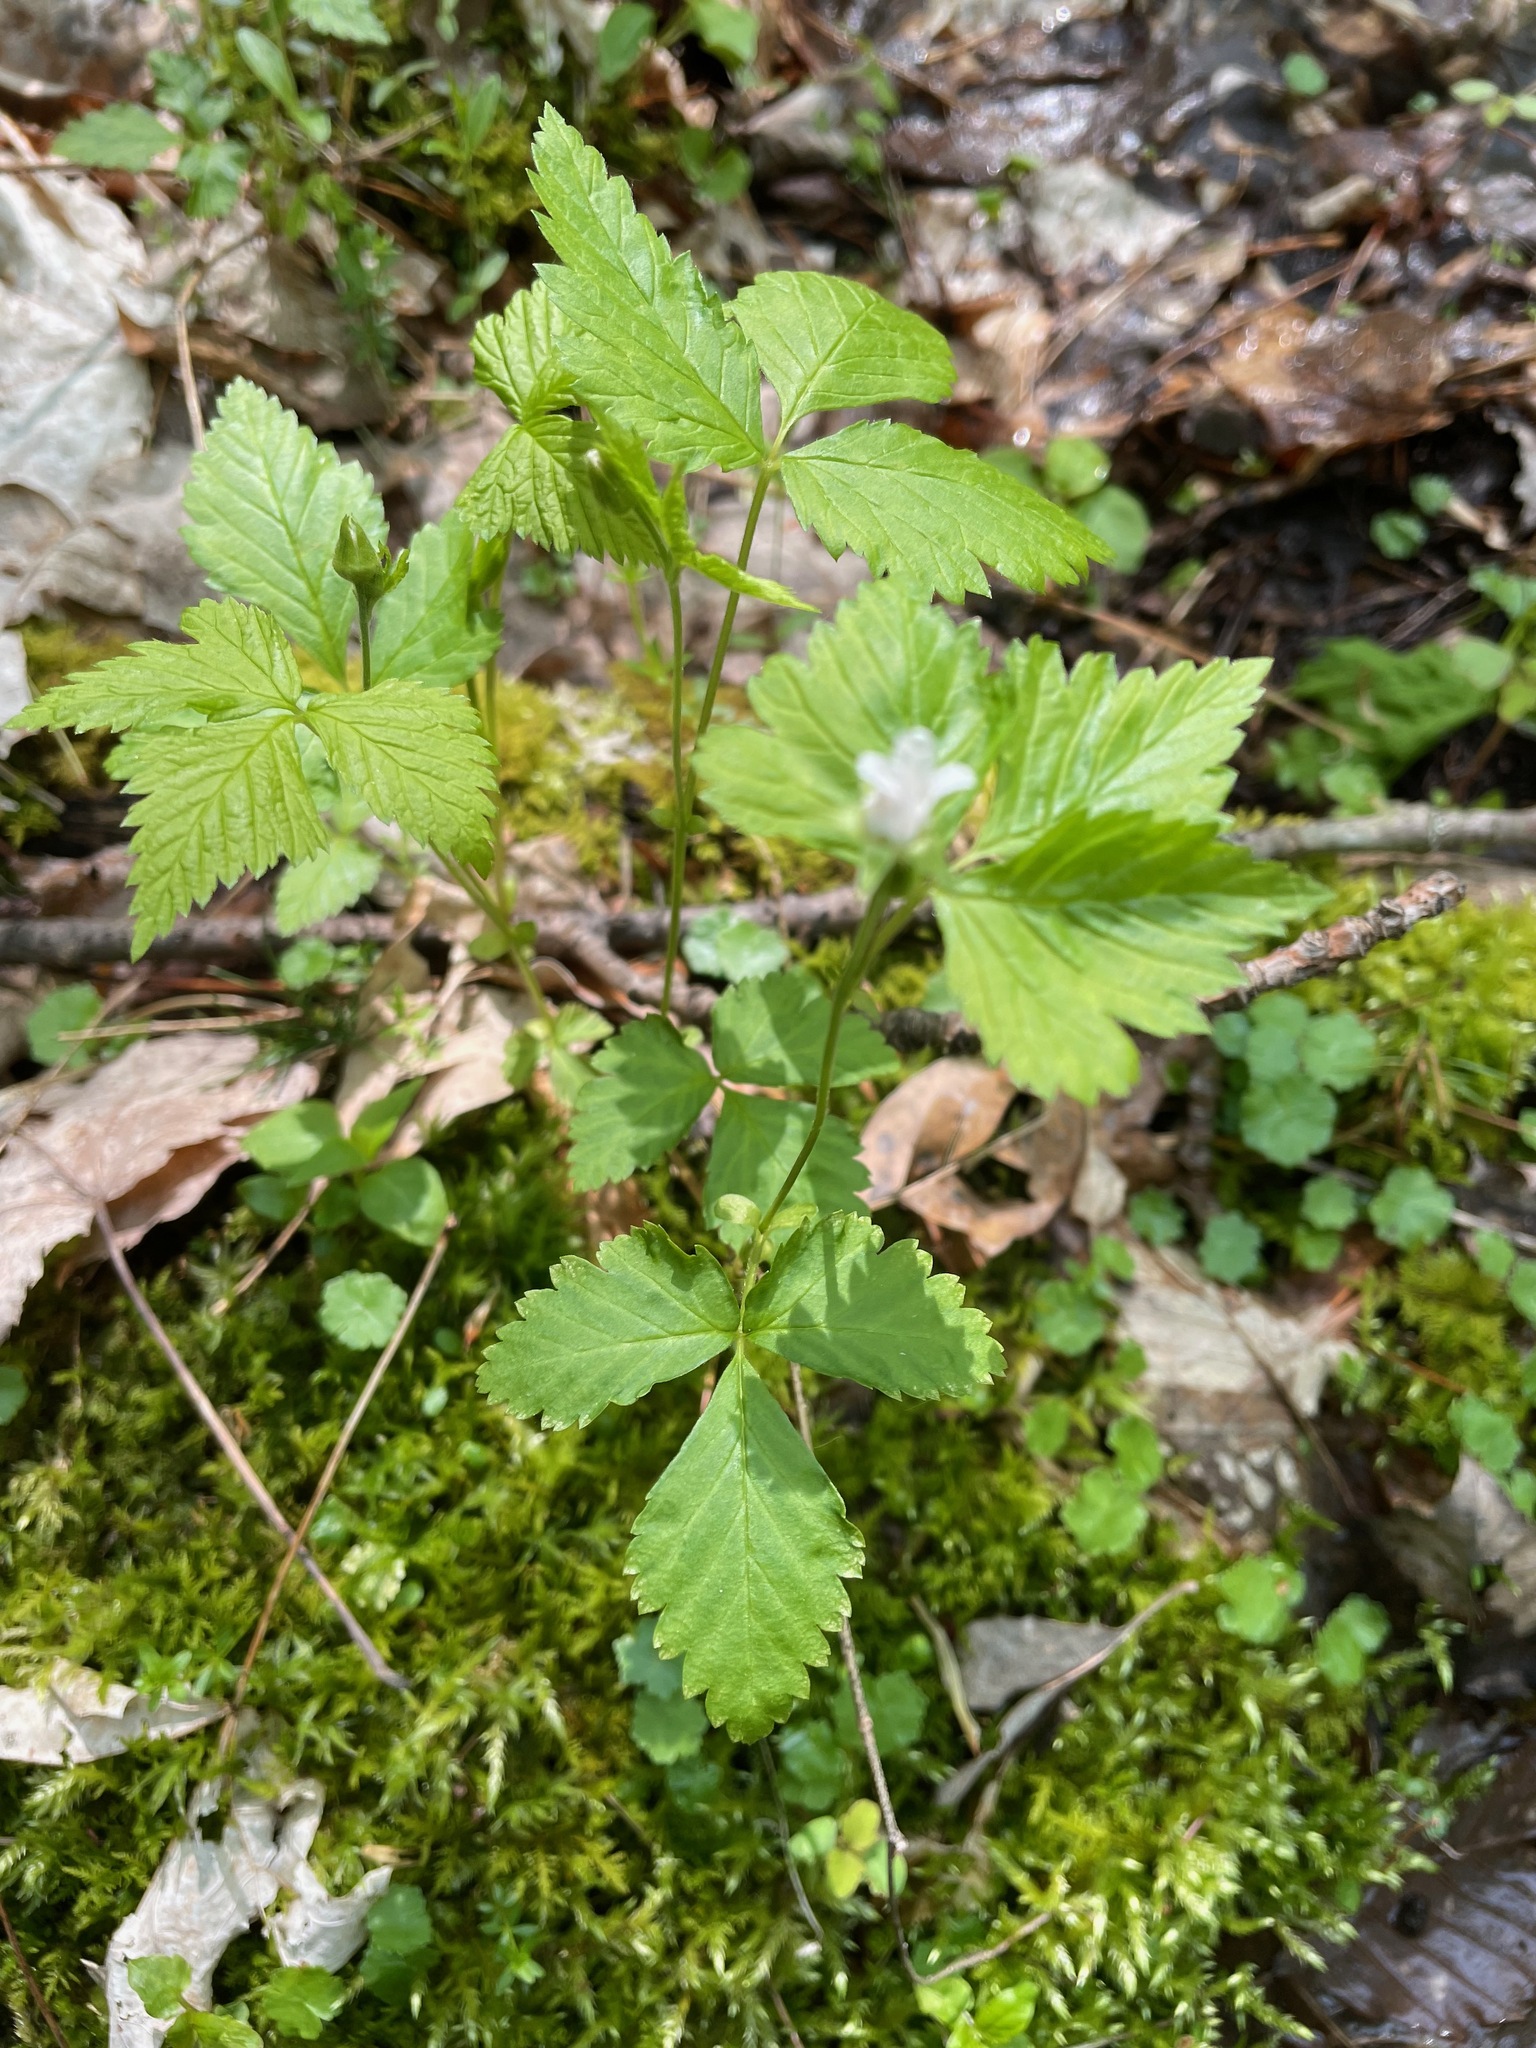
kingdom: Plantae
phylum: Tracheophyta
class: Magnoliopsida
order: Rosales
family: Rosaceae
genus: Rubus
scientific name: Rubus pubescens
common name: Dwarf raspberry
